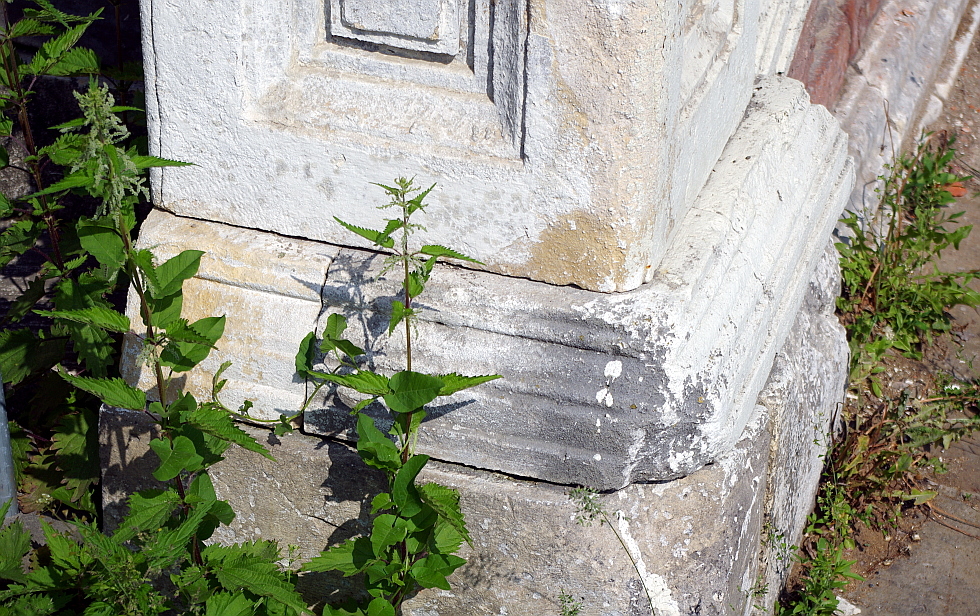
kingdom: Plantae
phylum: Tracheophyta
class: Magnoliopsida
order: Rosales
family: Urticaceae
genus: Urtica
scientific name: Urtica dioica
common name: Common nettle
